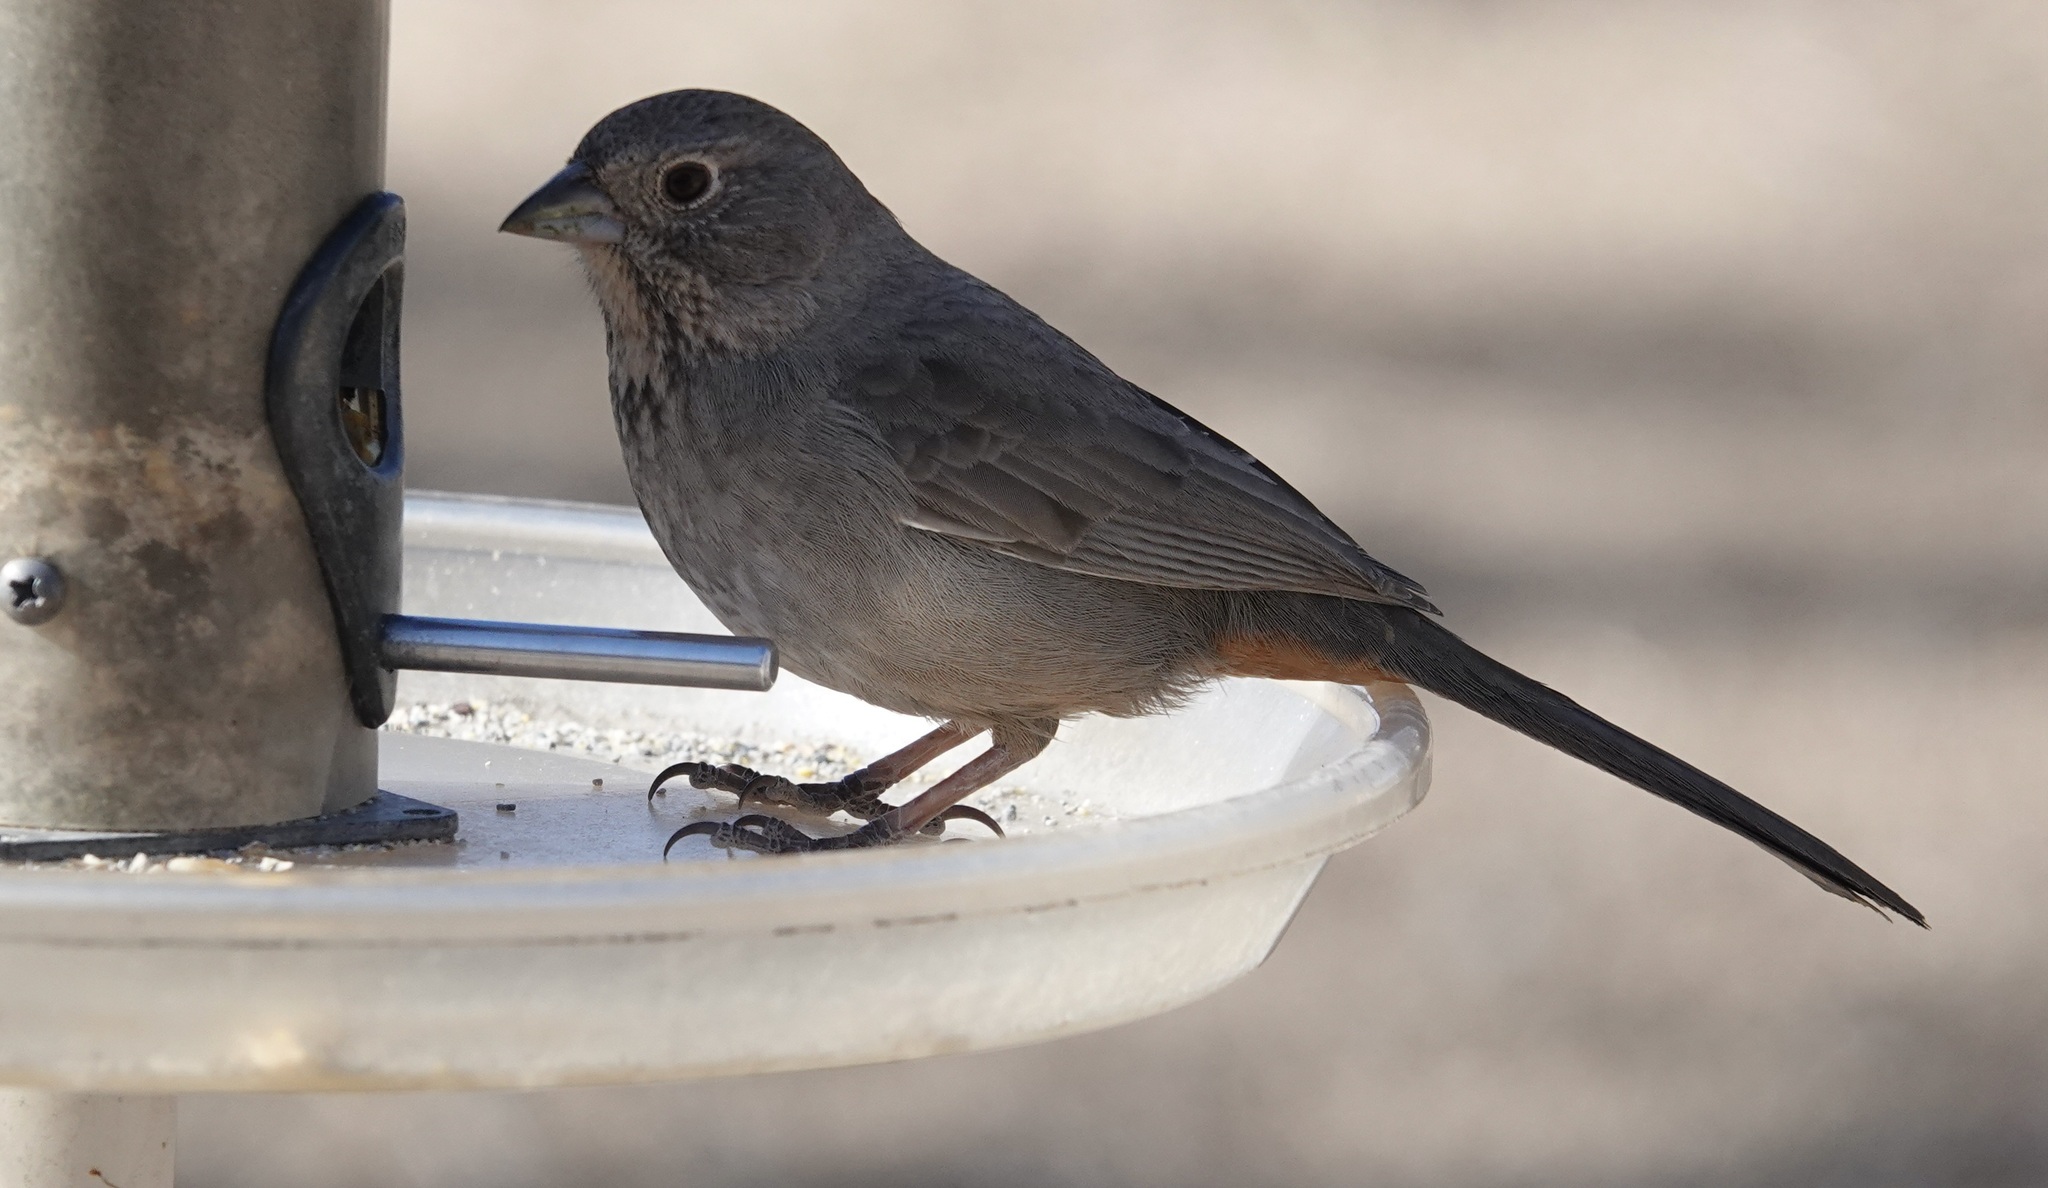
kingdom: Animalia
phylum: Chordata
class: Aves
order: Passeriformes
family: Passerellidae
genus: Melozone
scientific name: Melozone fusca
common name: Canyon towhee
